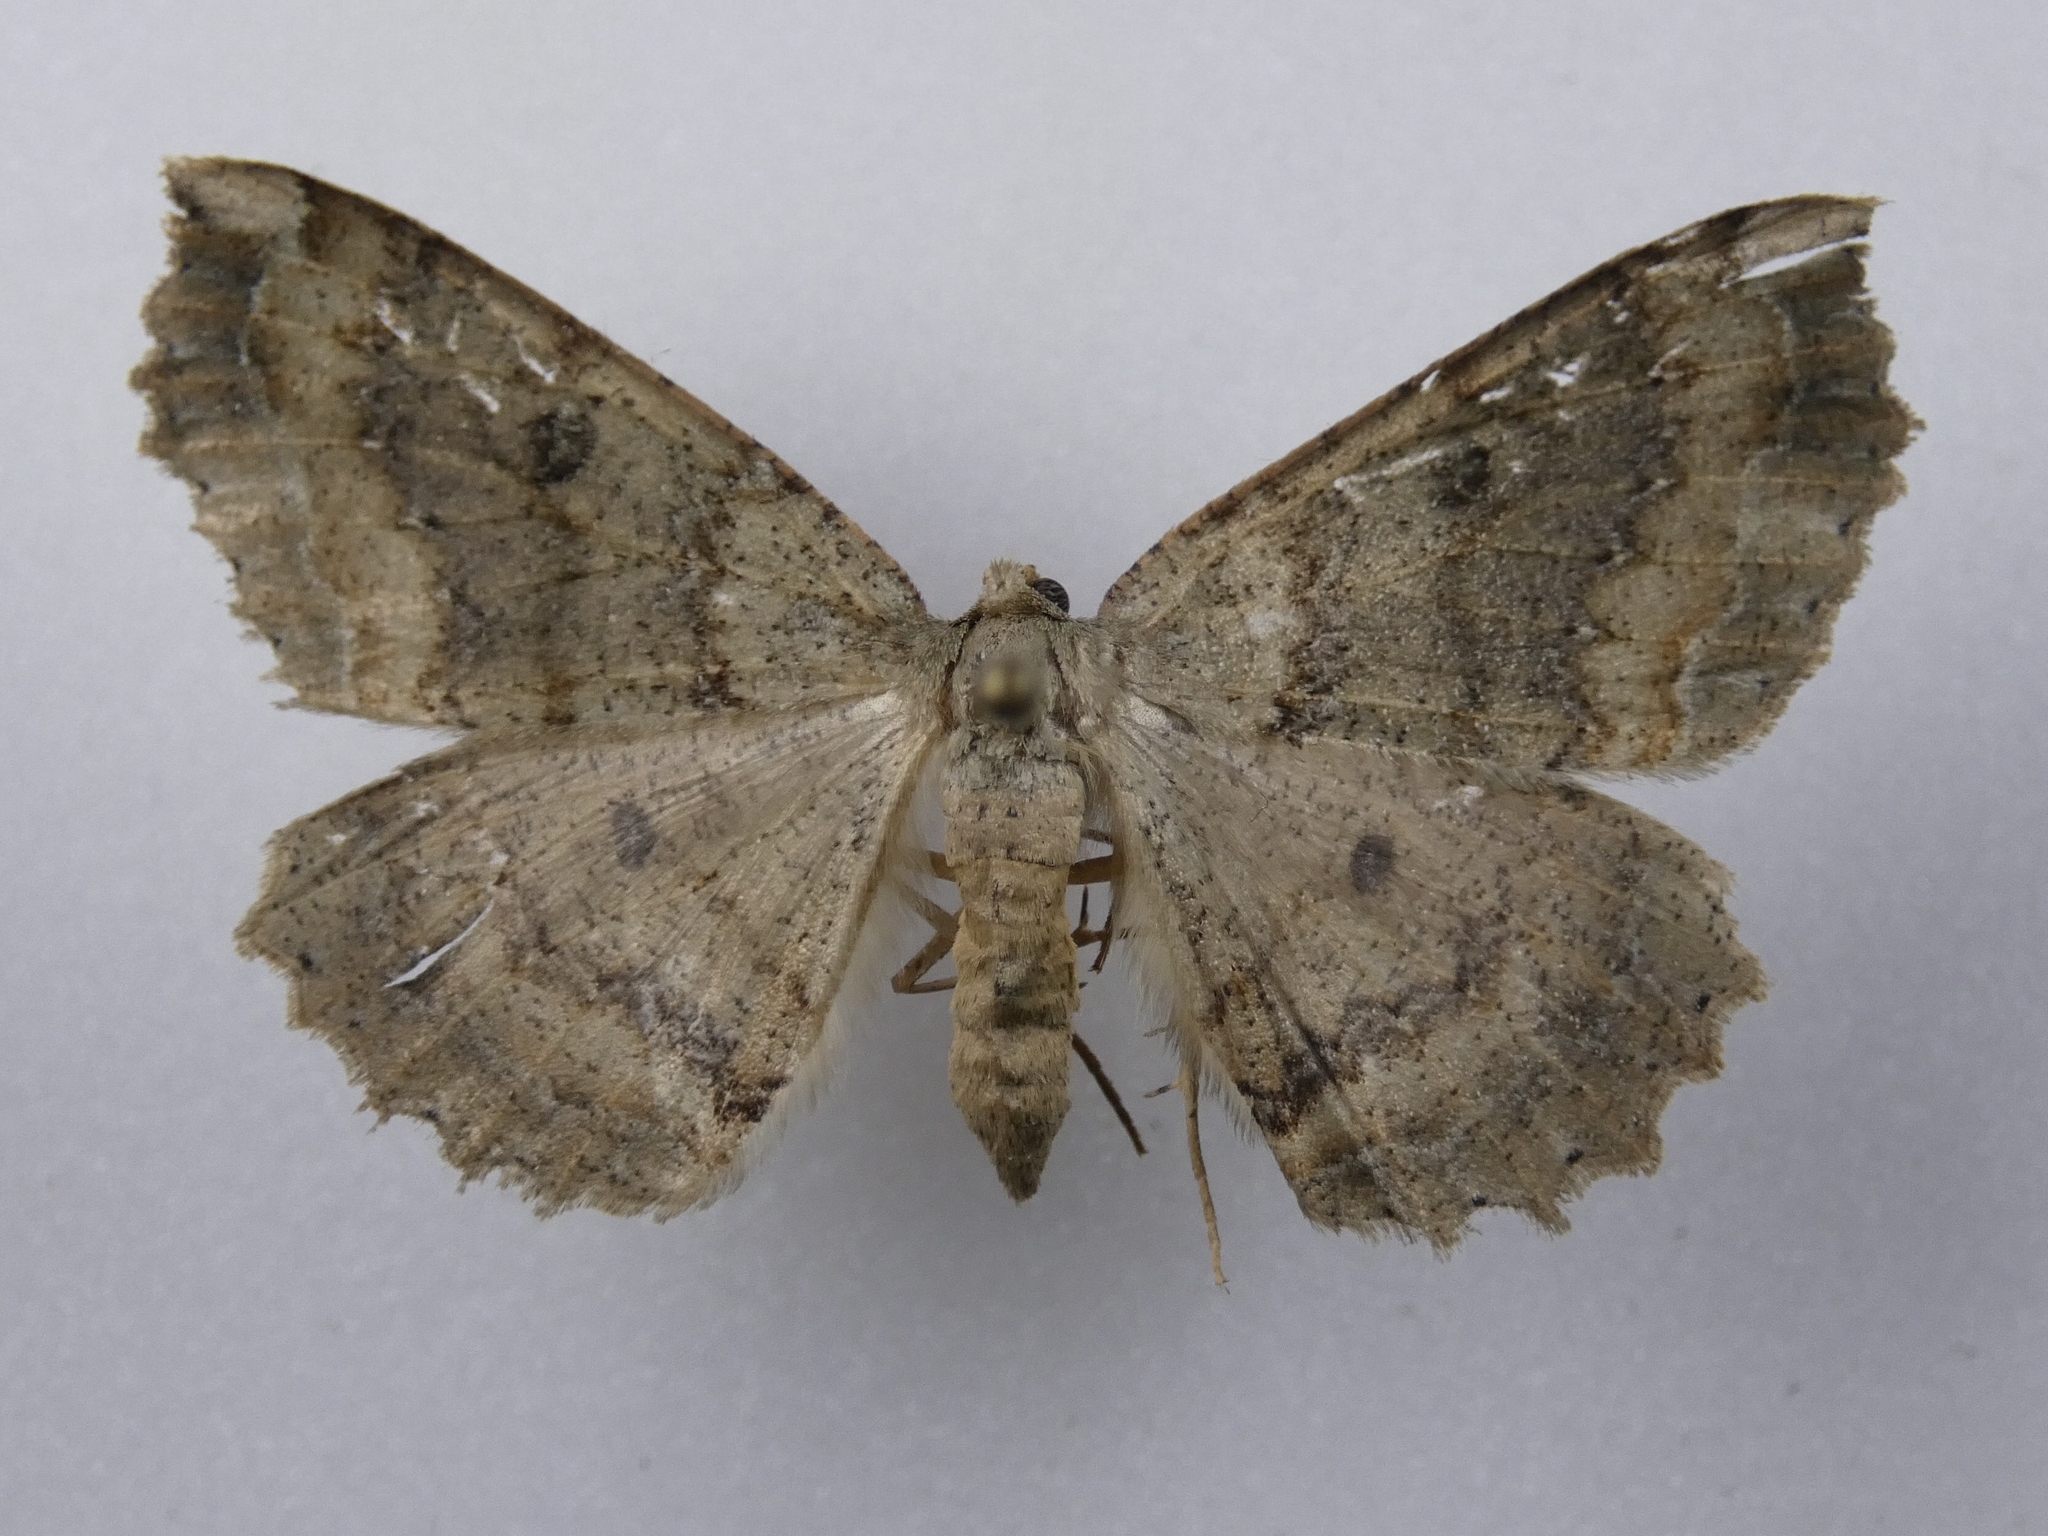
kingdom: Animalia
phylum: Arthropoda
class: Insecta
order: Lepidoptera
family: Geometridae
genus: Cleora
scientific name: Cleora scriptaria
